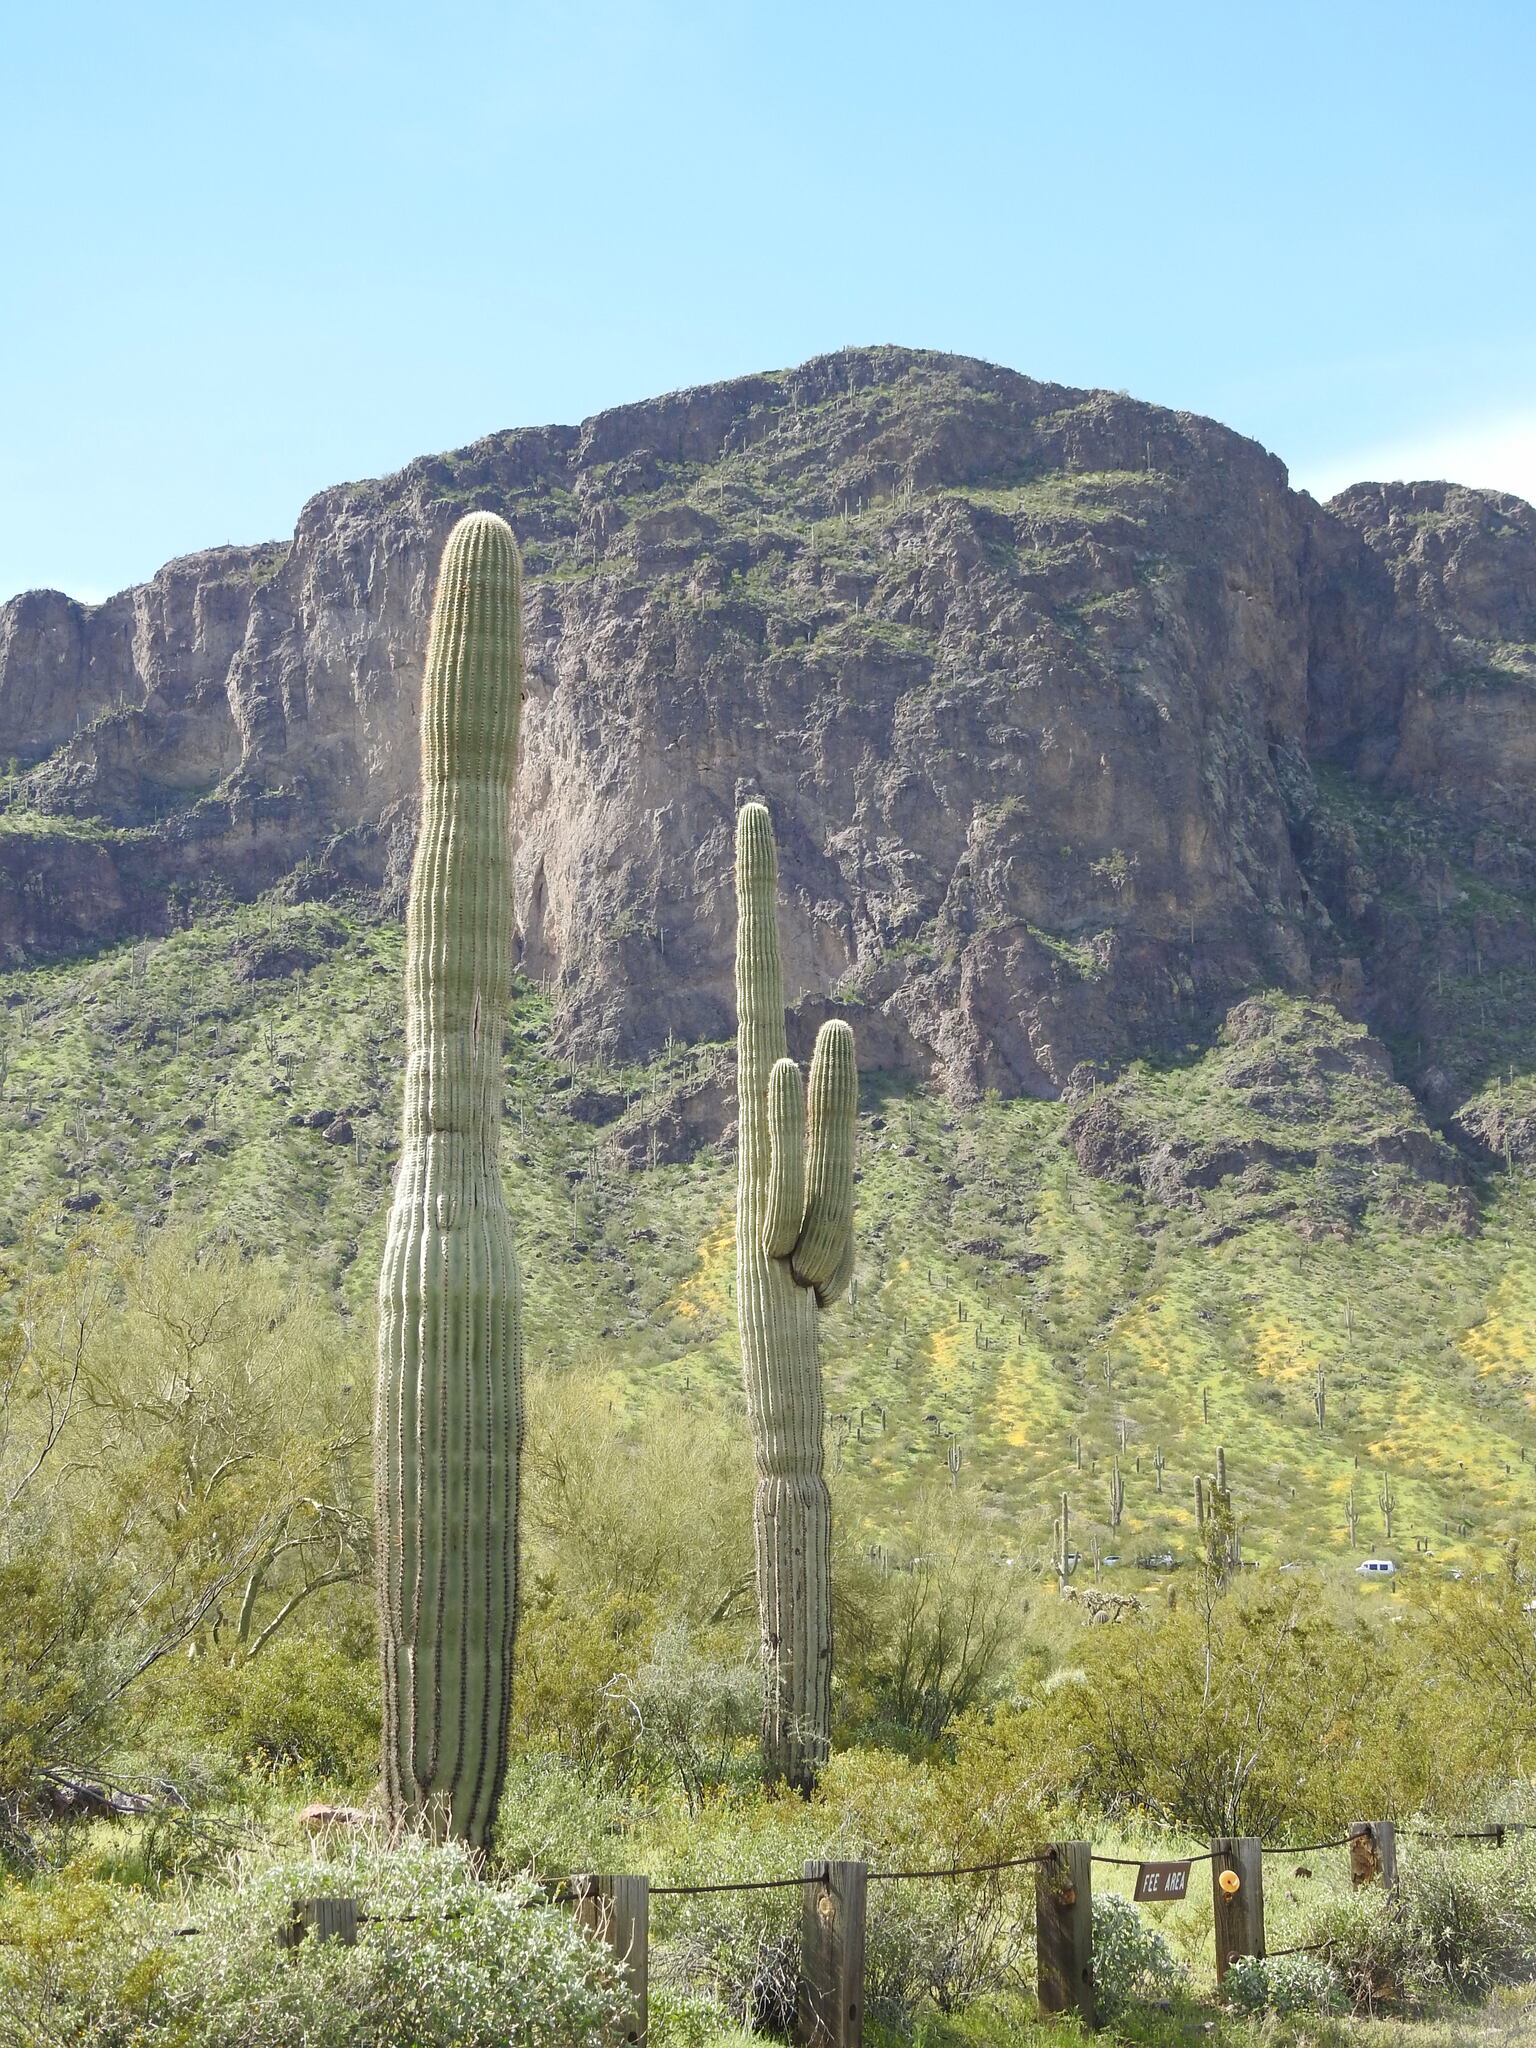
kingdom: Plantae
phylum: Tracheophyta
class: Magnoliopsida
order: Caryophyllales
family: Cactaceae
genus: Carnegiea
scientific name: Carnegiea gigantea
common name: Saguaro
